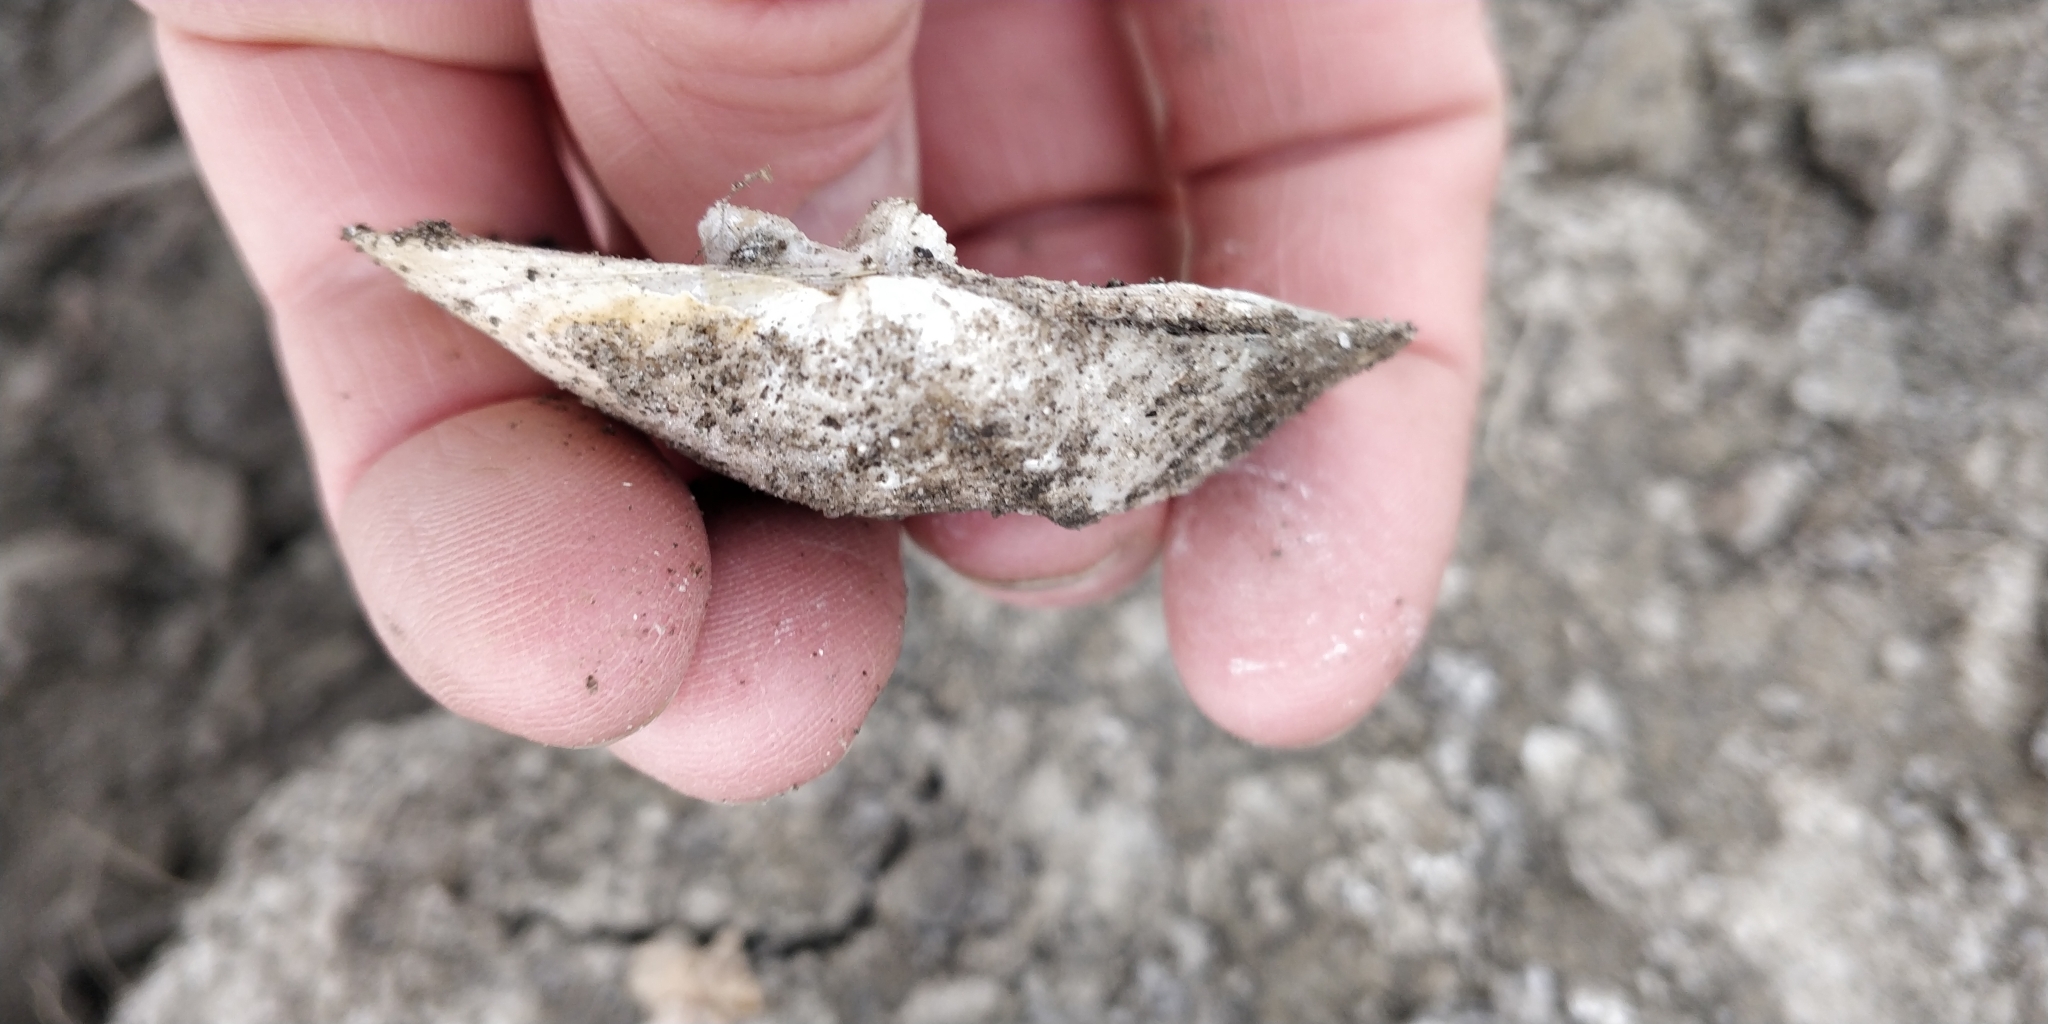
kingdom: Animalia
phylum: Mollusca
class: Bivalvia
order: Unionida
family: Unionidae
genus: Quadrula
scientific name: Quadrula quadrula
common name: Mapleleaf
